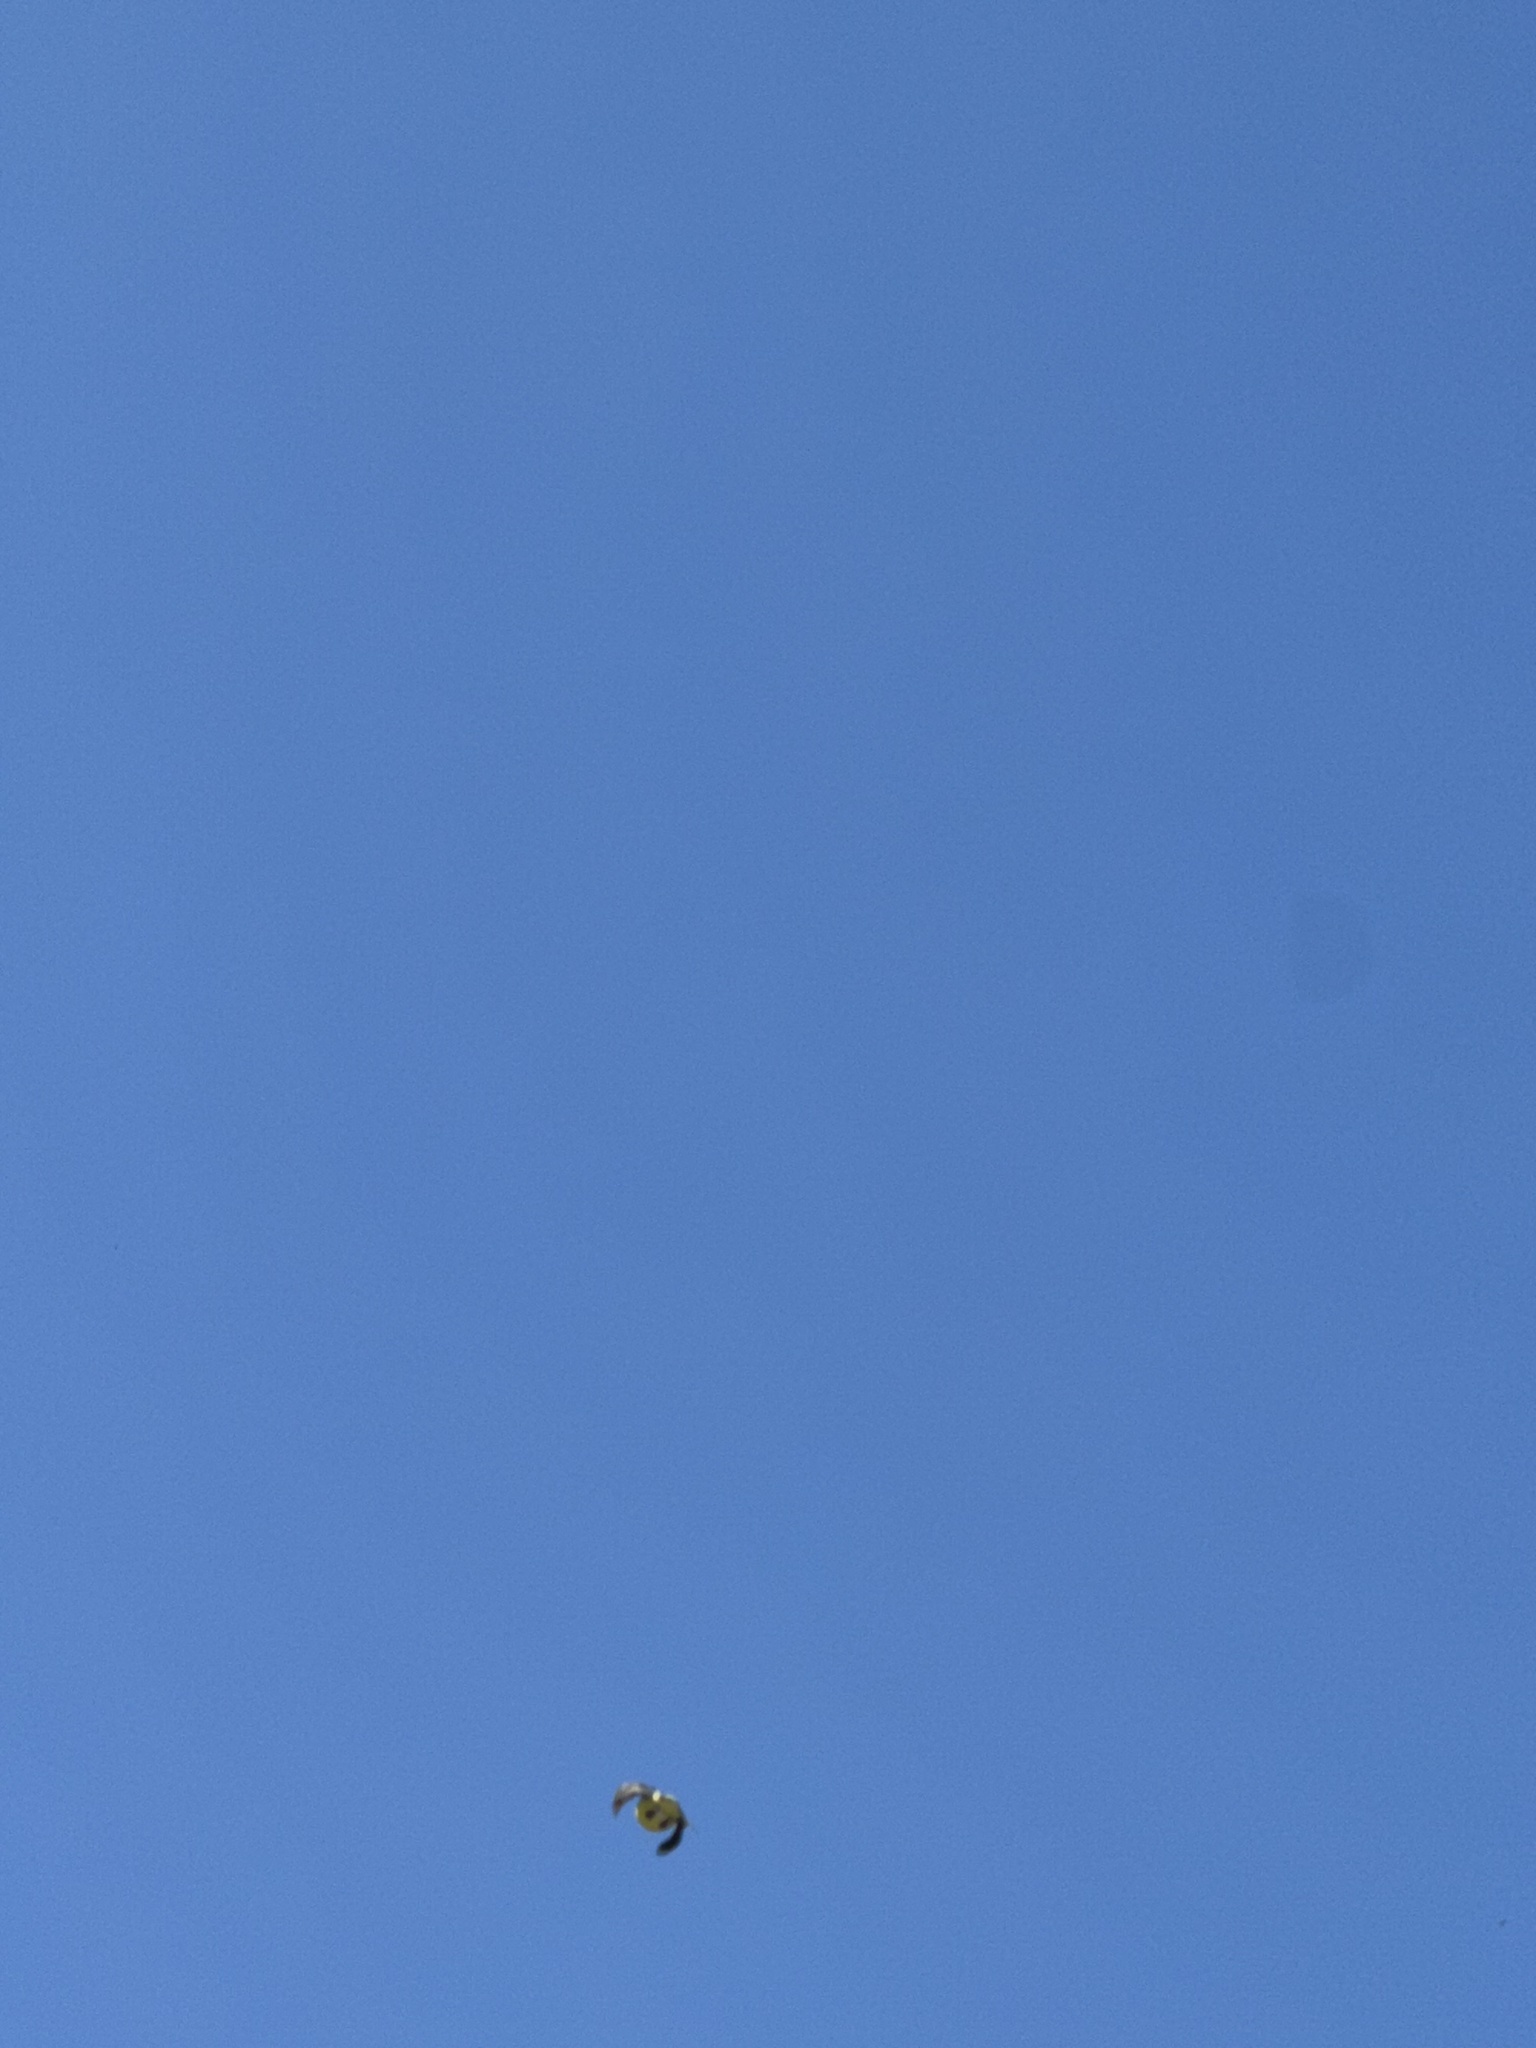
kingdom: Animalia
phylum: Chordata
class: Aves
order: Passeriformes
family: Fringillidae
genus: Spinus
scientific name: Spinus psaltria
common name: Lesser goldfinch
